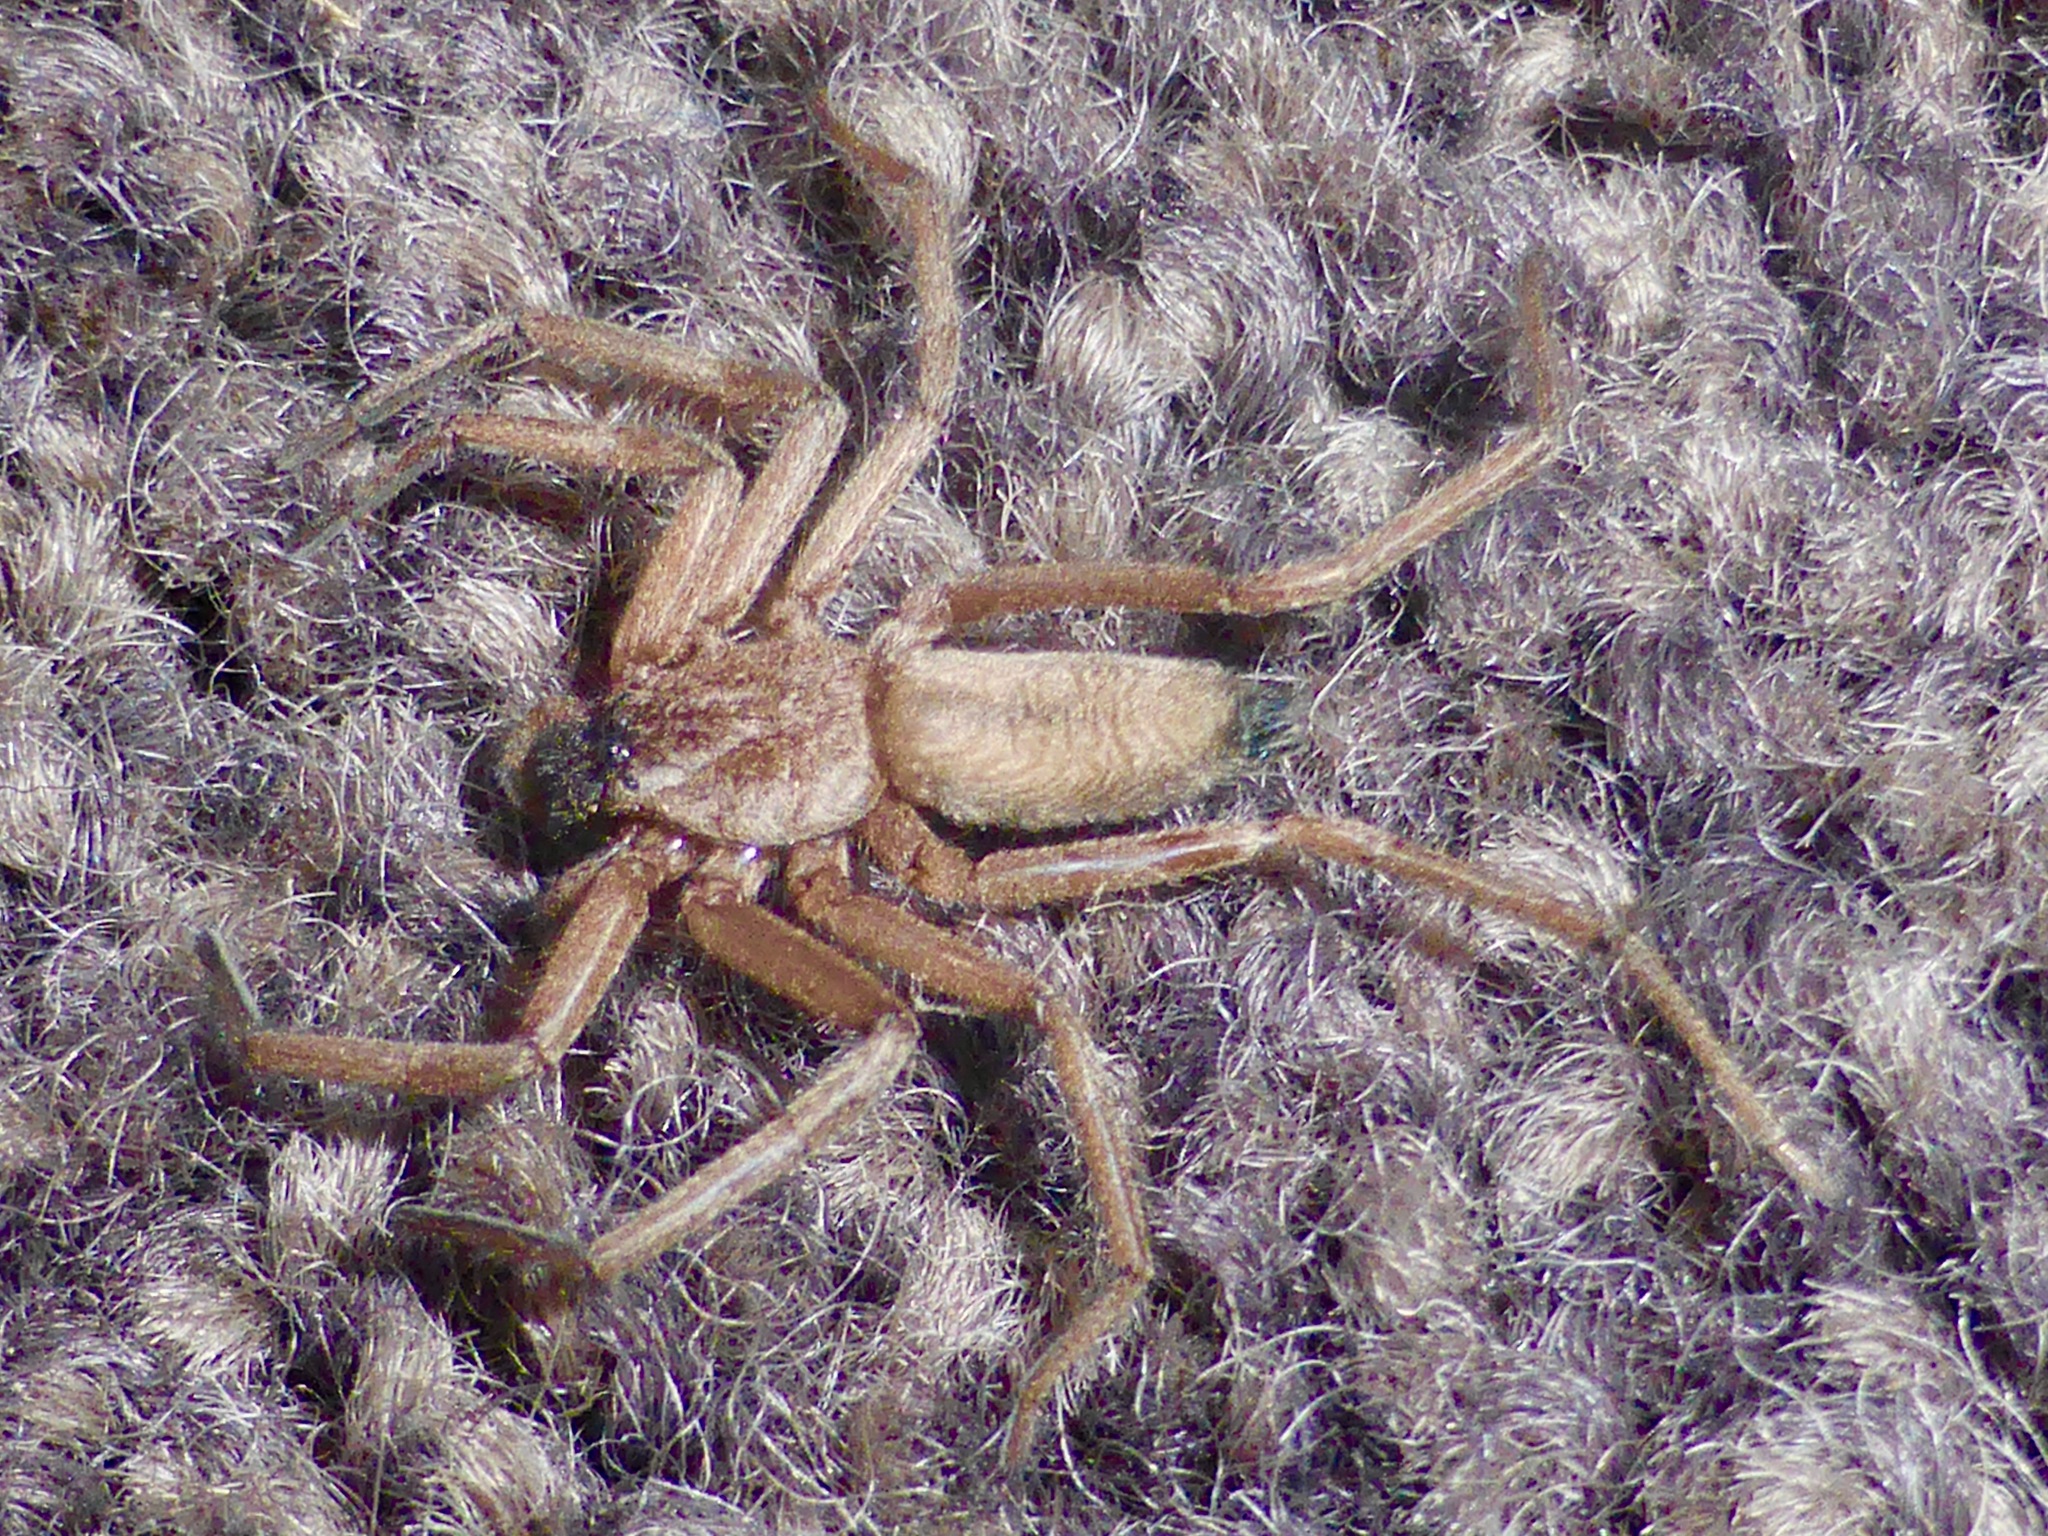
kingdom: Animalia
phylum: Arthropoda
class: Arachnida
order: Araneae
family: Trochanteriidae
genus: Hemicloea
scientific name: Hemicloea rogenhoferi
